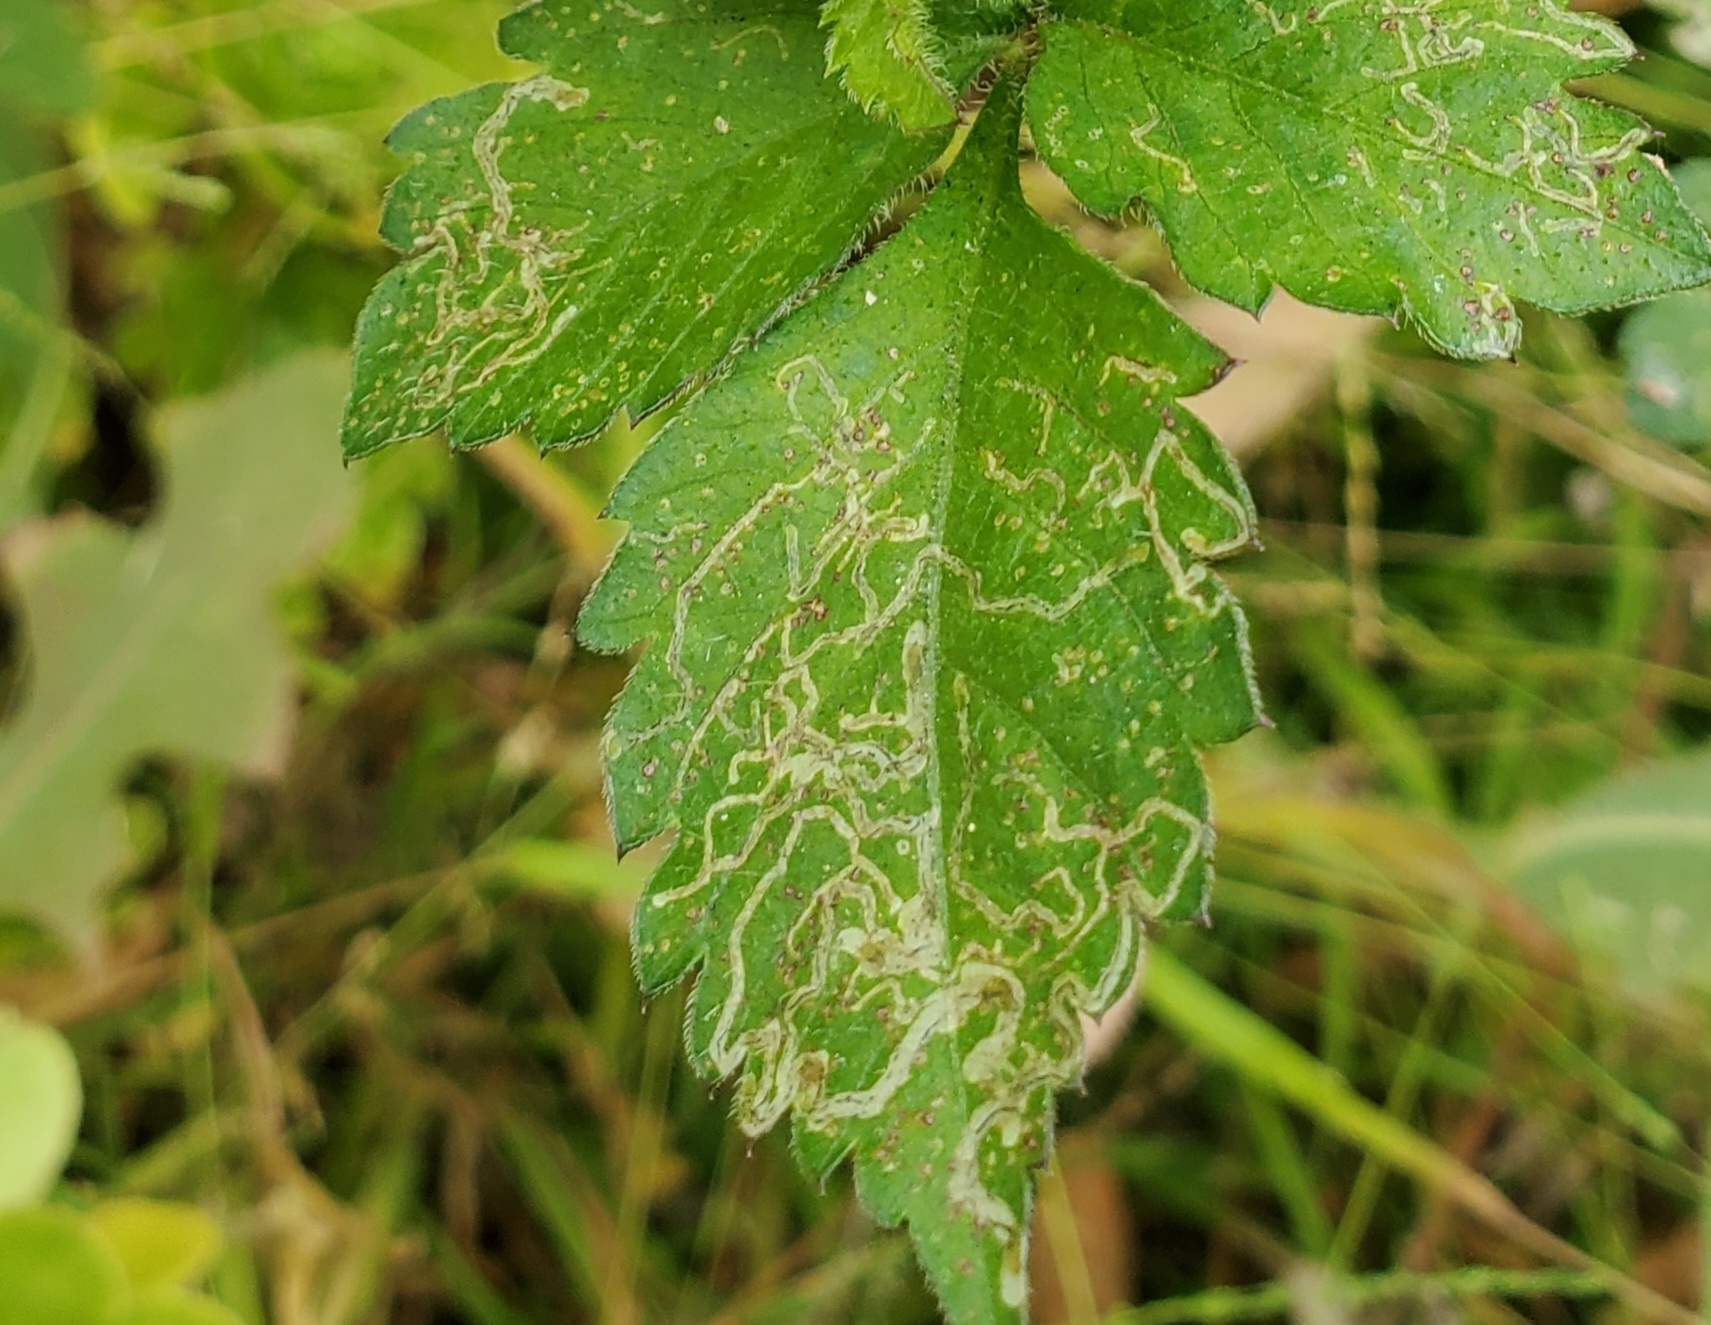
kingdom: Animalia
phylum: Arthropoda
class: Insecta
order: Diptera
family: Agromyzidae
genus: Liriomyza
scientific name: Liriomyza
